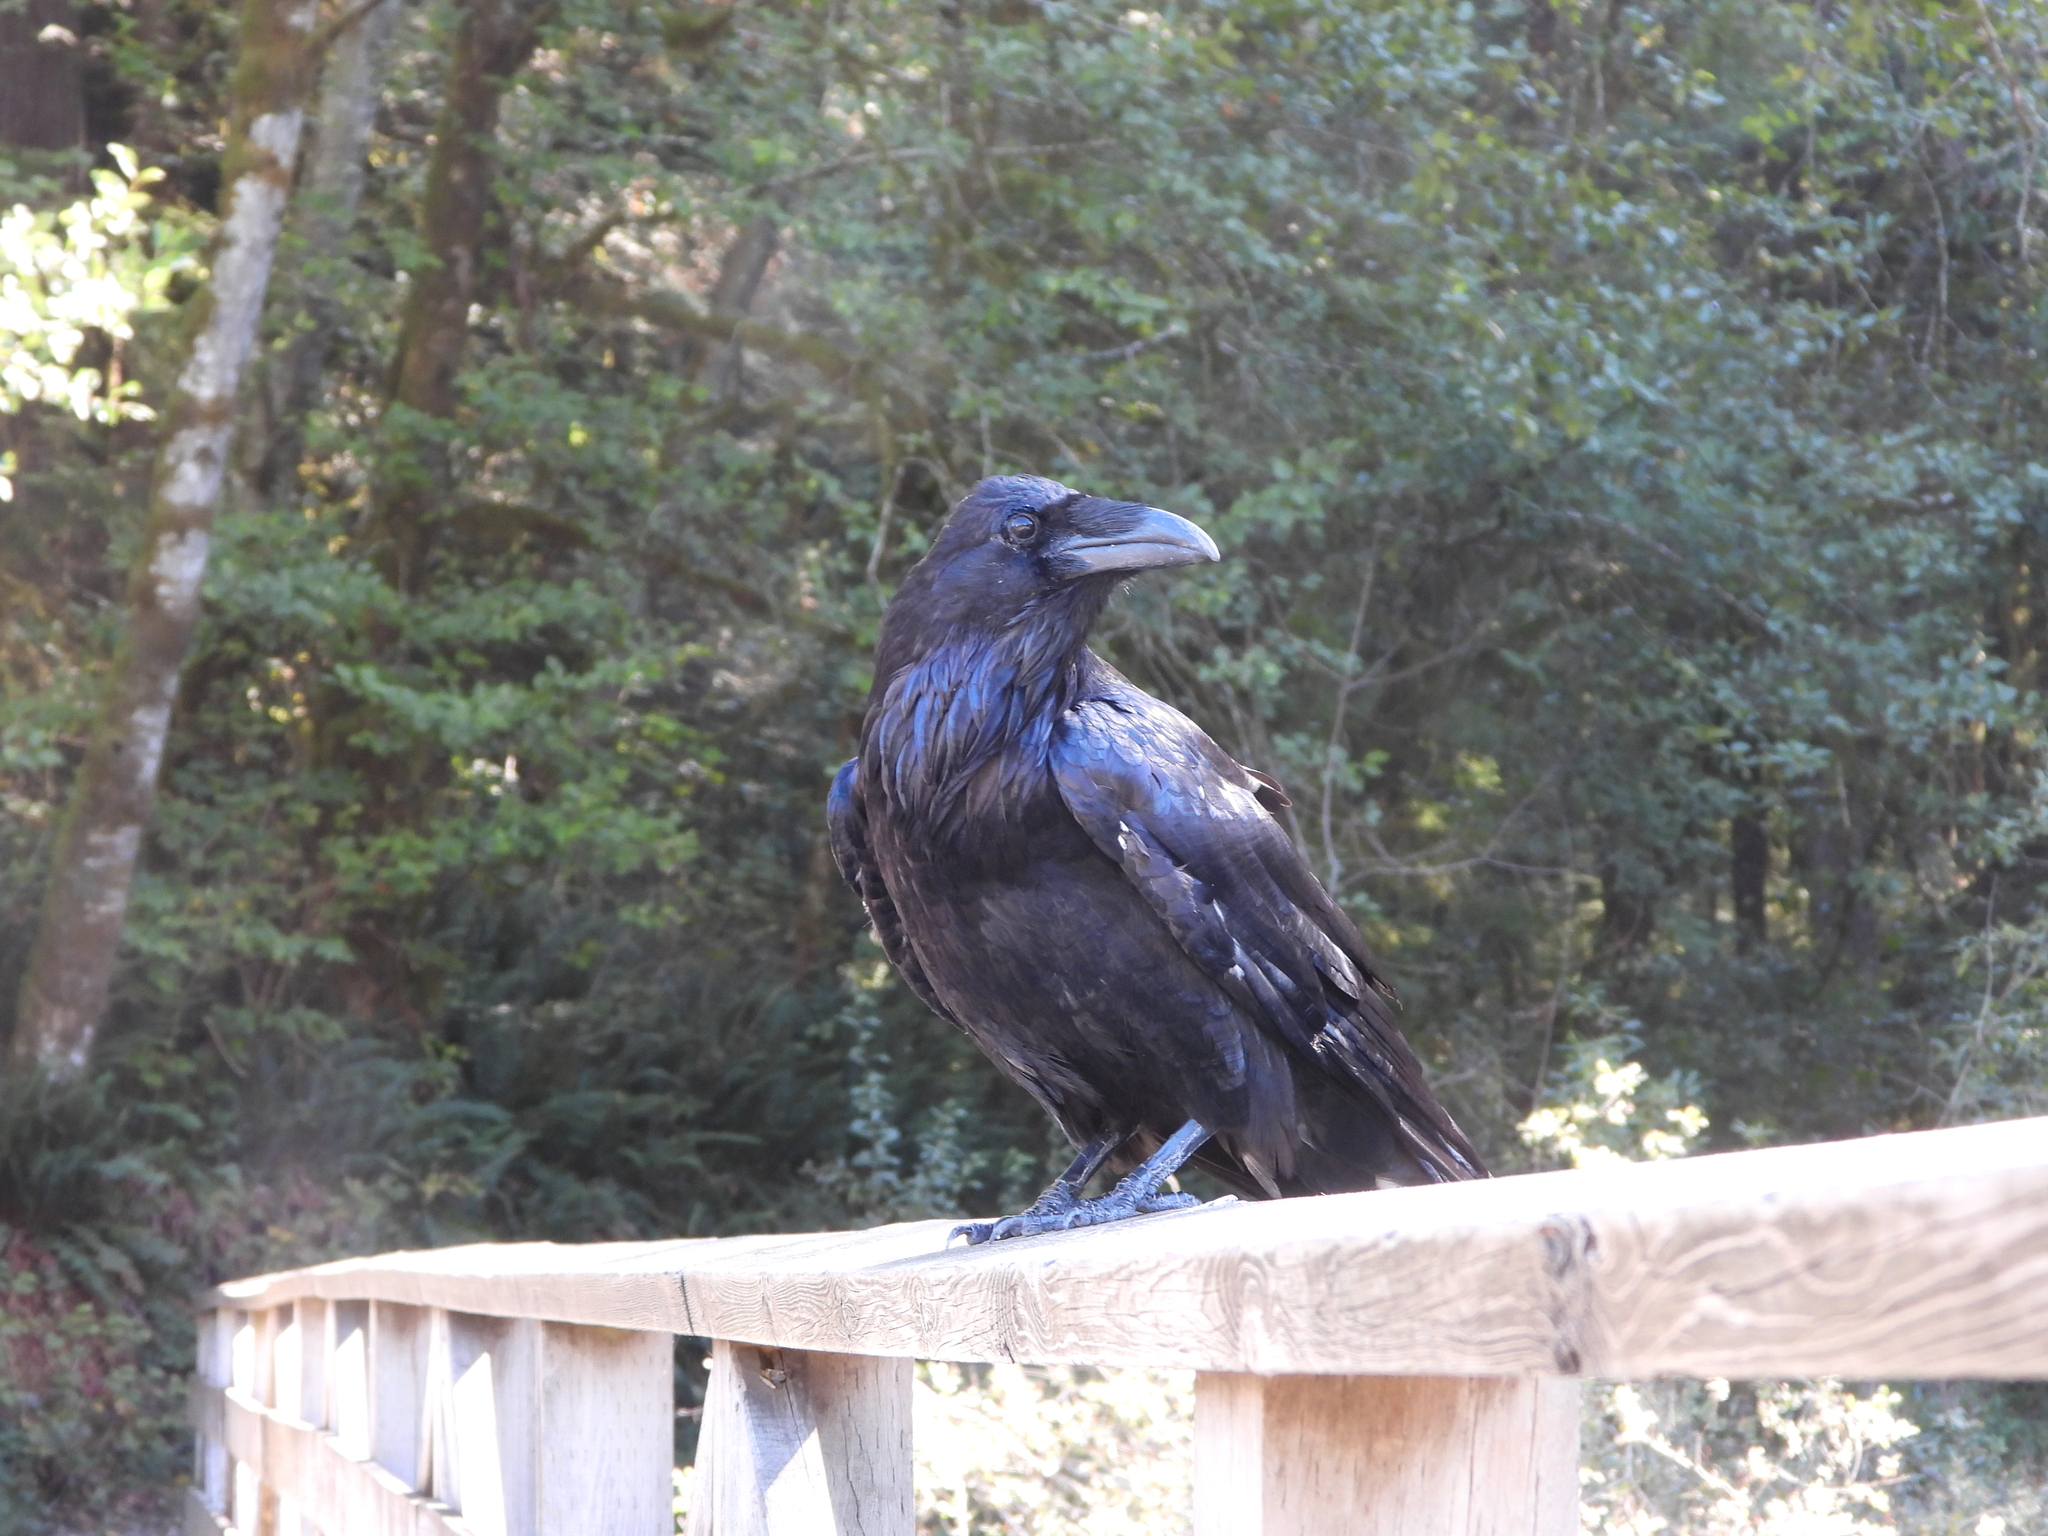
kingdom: Animalia
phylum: Chordata
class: Aves
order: Passeriformes
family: Corvidae
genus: Corvus
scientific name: Corvus corax
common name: Common raven
